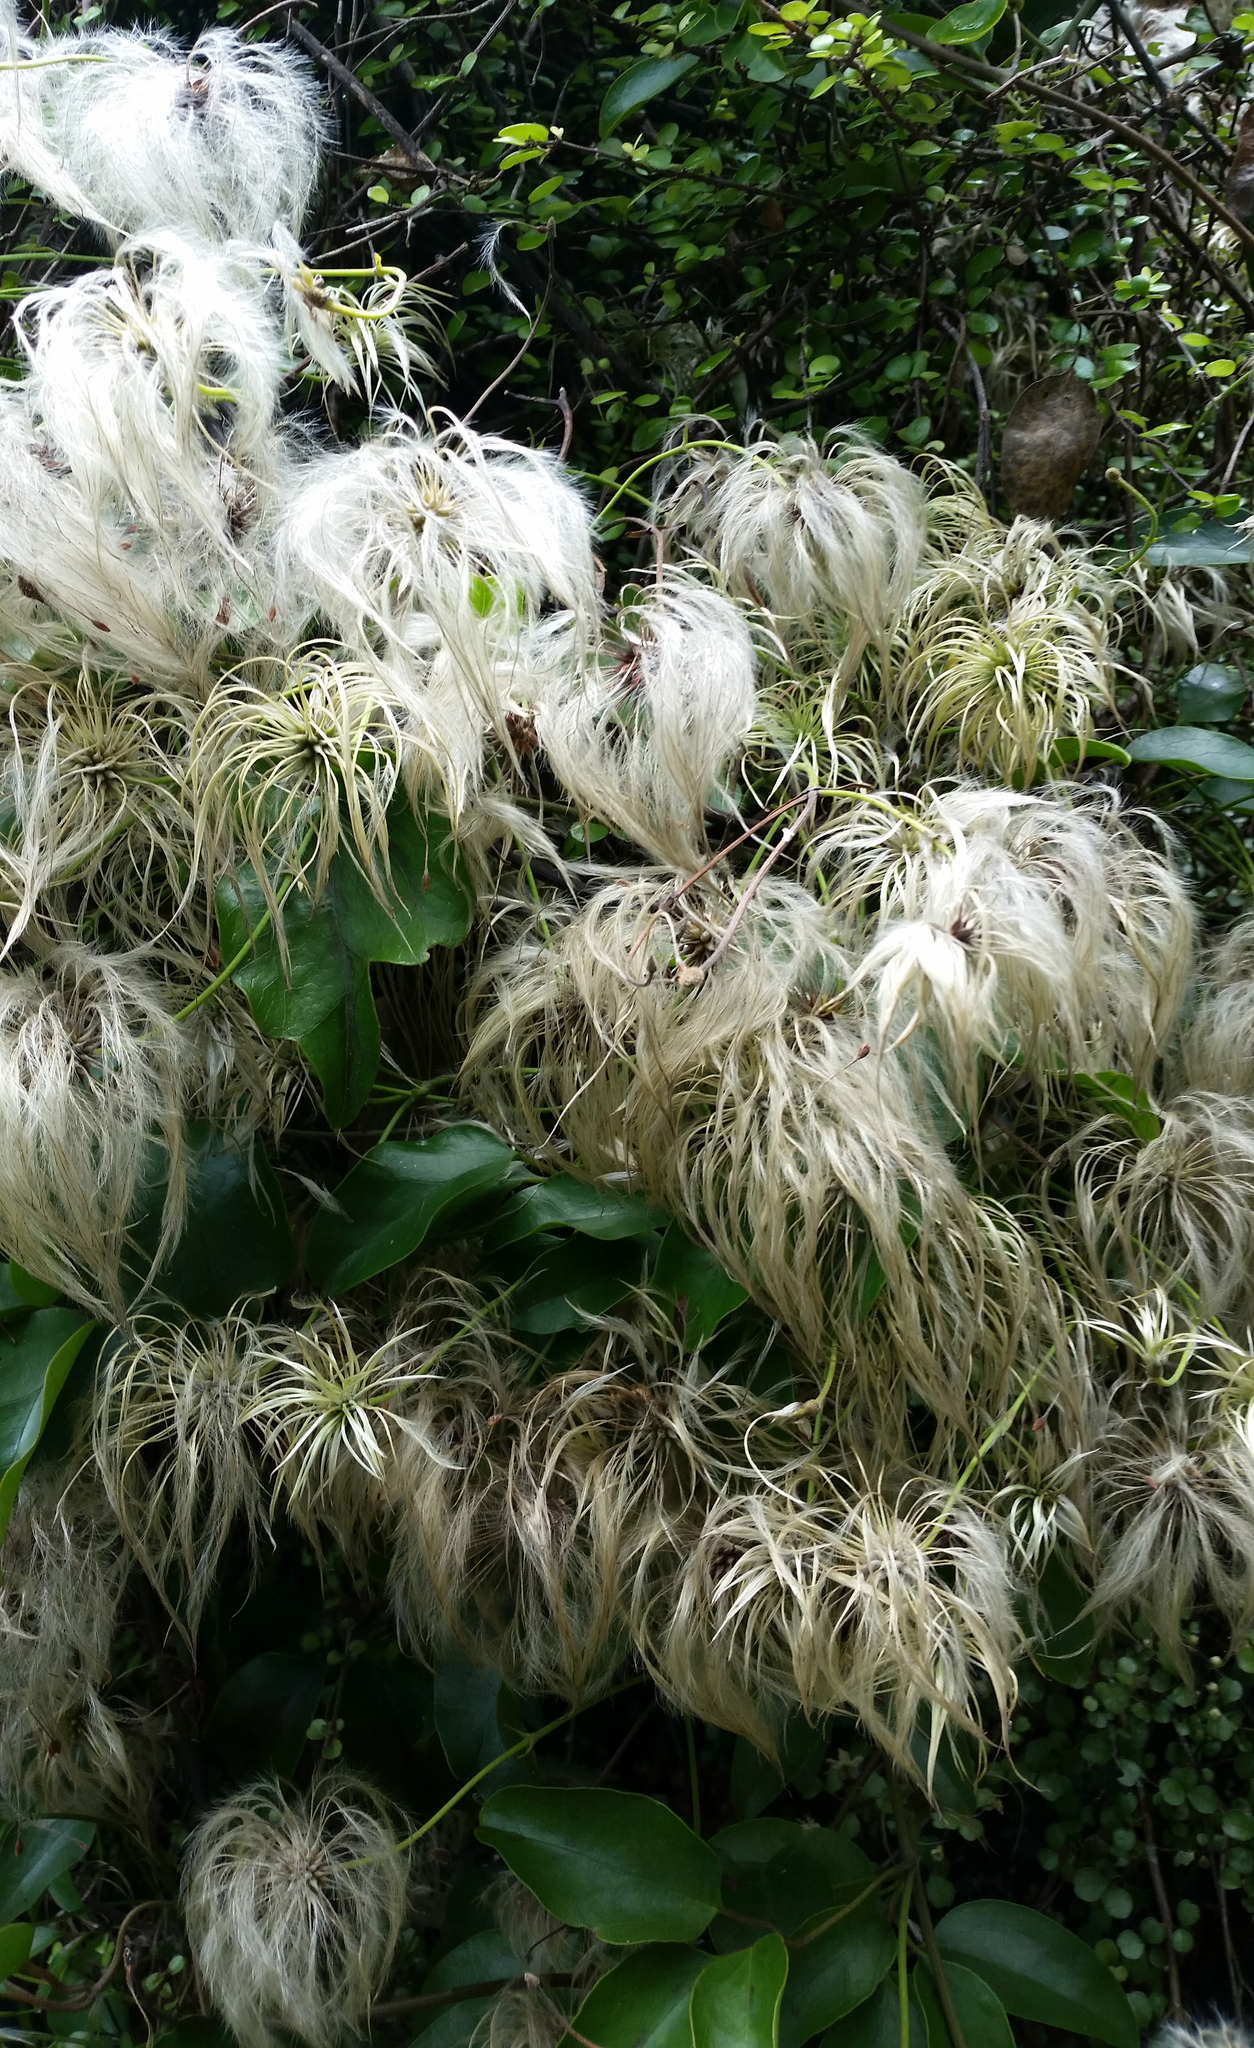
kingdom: Plantae
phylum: Tracheophyta
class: Magnoliopsida
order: Ranunculales
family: Ranunculaceae
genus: Clematis
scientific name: Clematis paniculata
